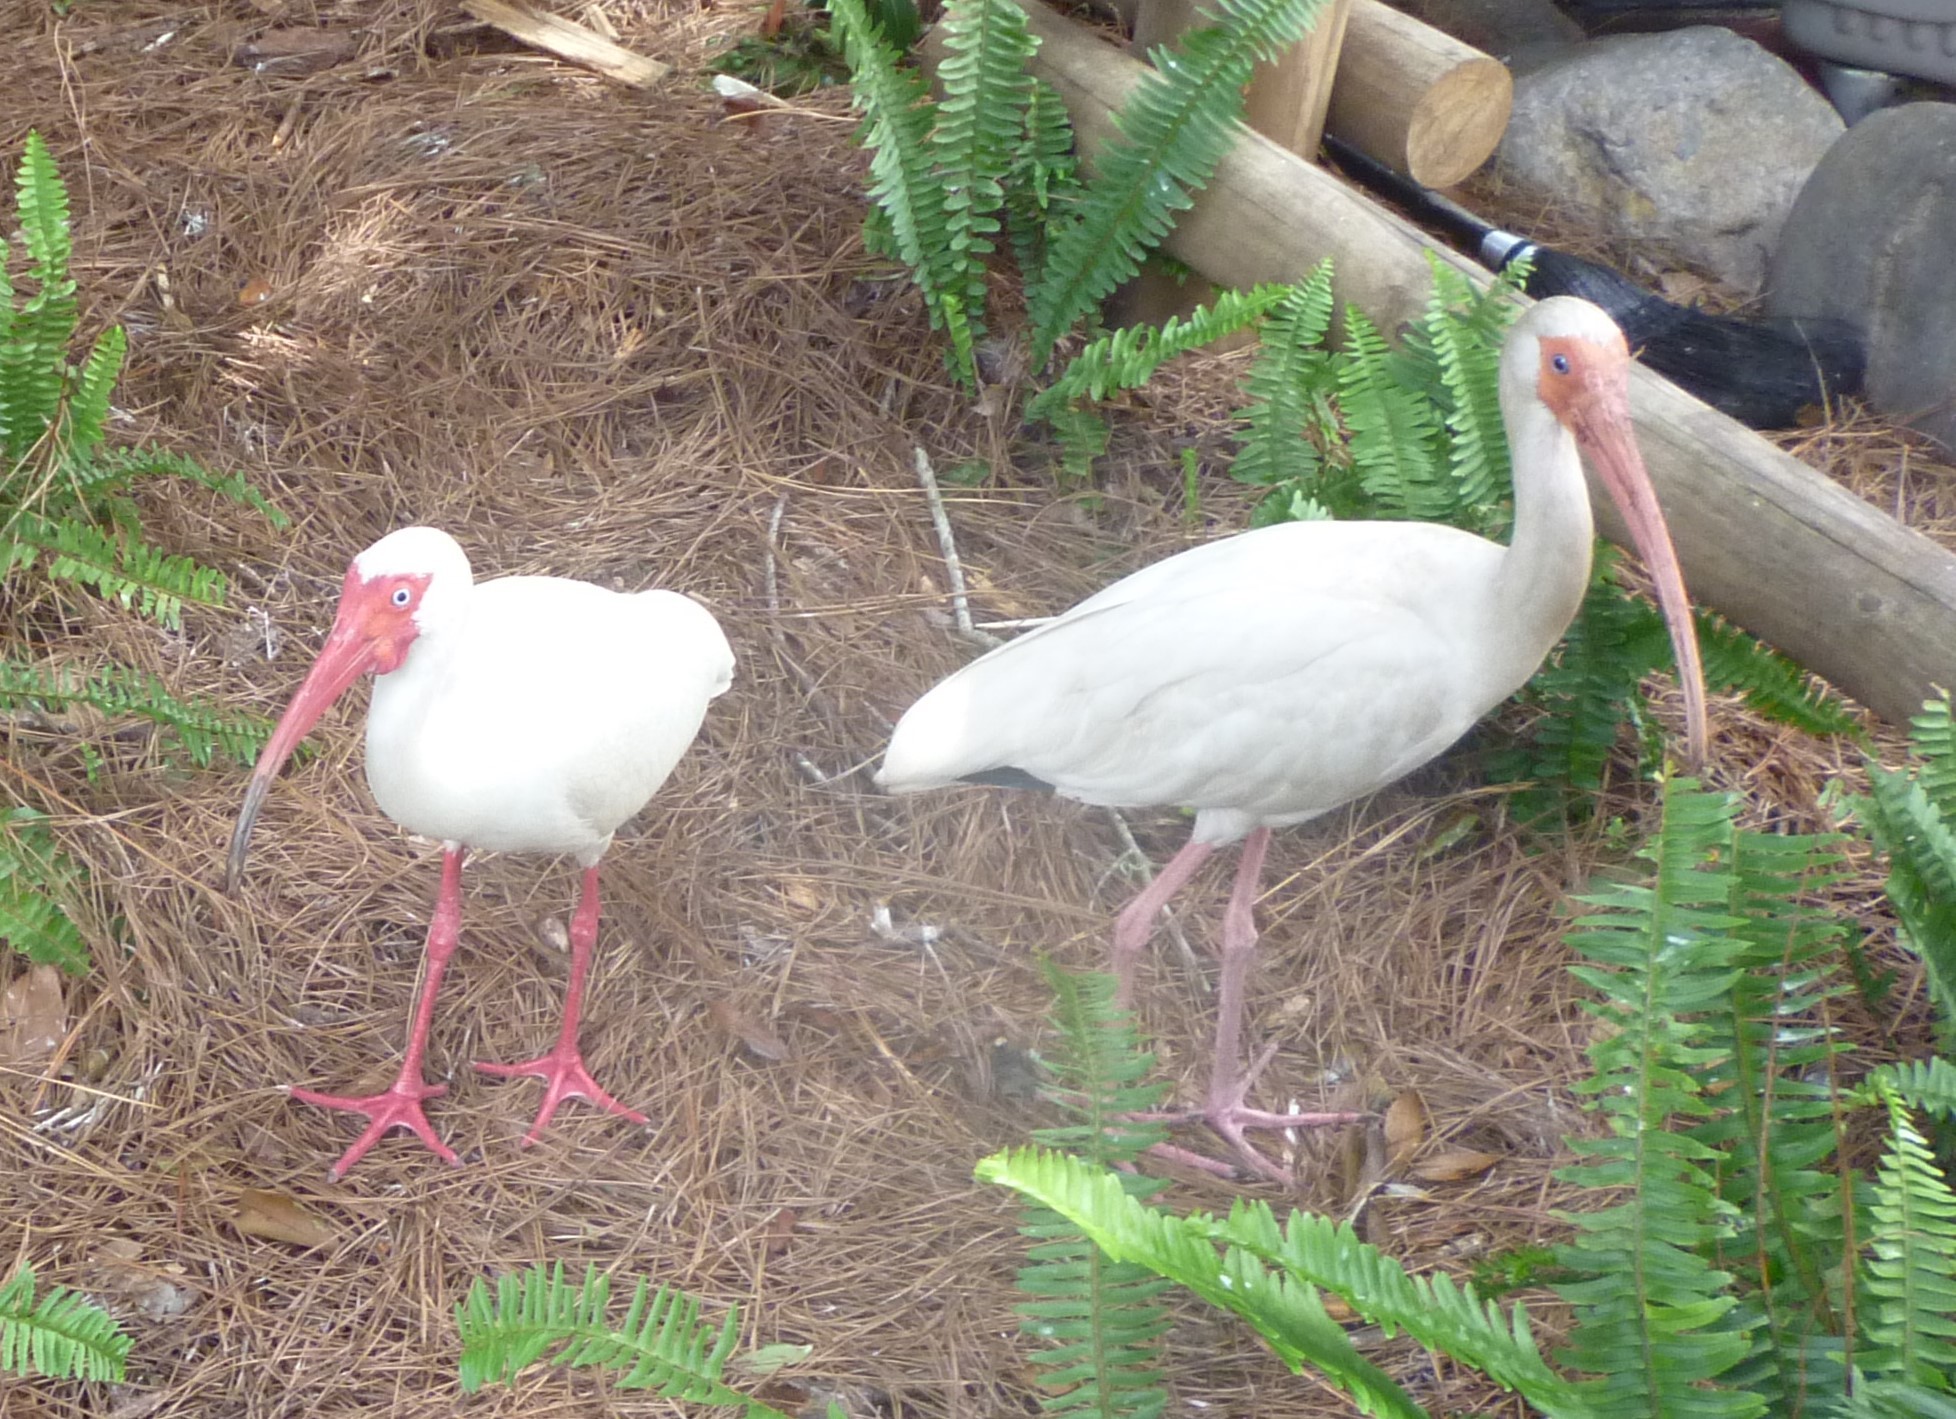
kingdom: Animalia
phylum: Chordata
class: Aves
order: Pelecaniformes
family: Threskiornithidae
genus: Eudocimus
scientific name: Eudocimus albus
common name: White ibis
